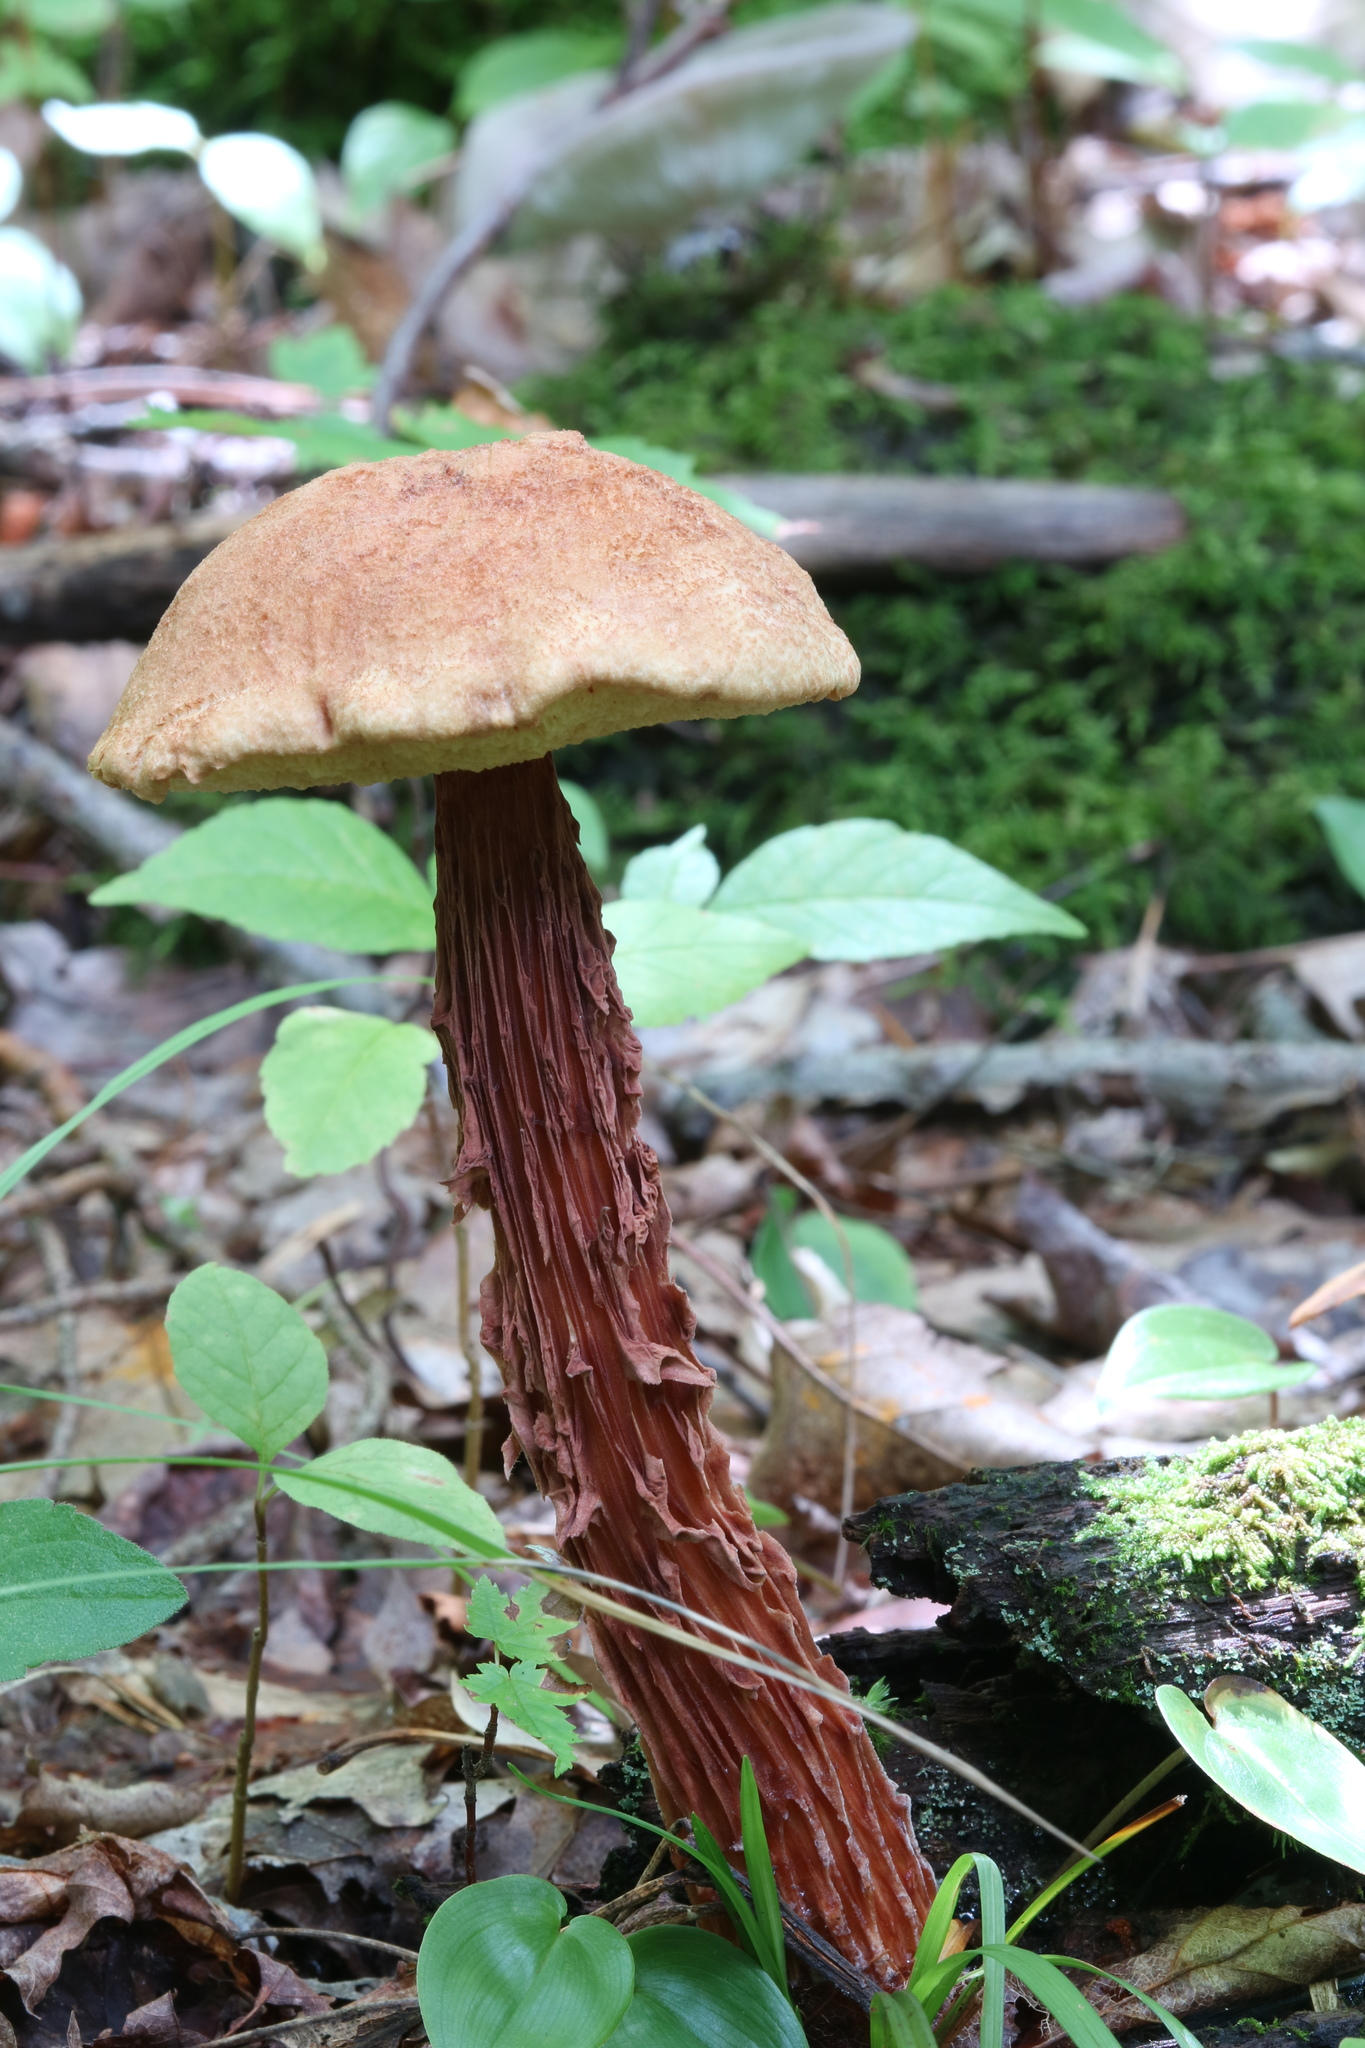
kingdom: Fungi
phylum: Basidiomycota
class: Agaricomycetes
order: Boletales
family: Boletaceae
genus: Aureoboletus
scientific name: Aureoboletus russellii
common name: Russell's bolete
